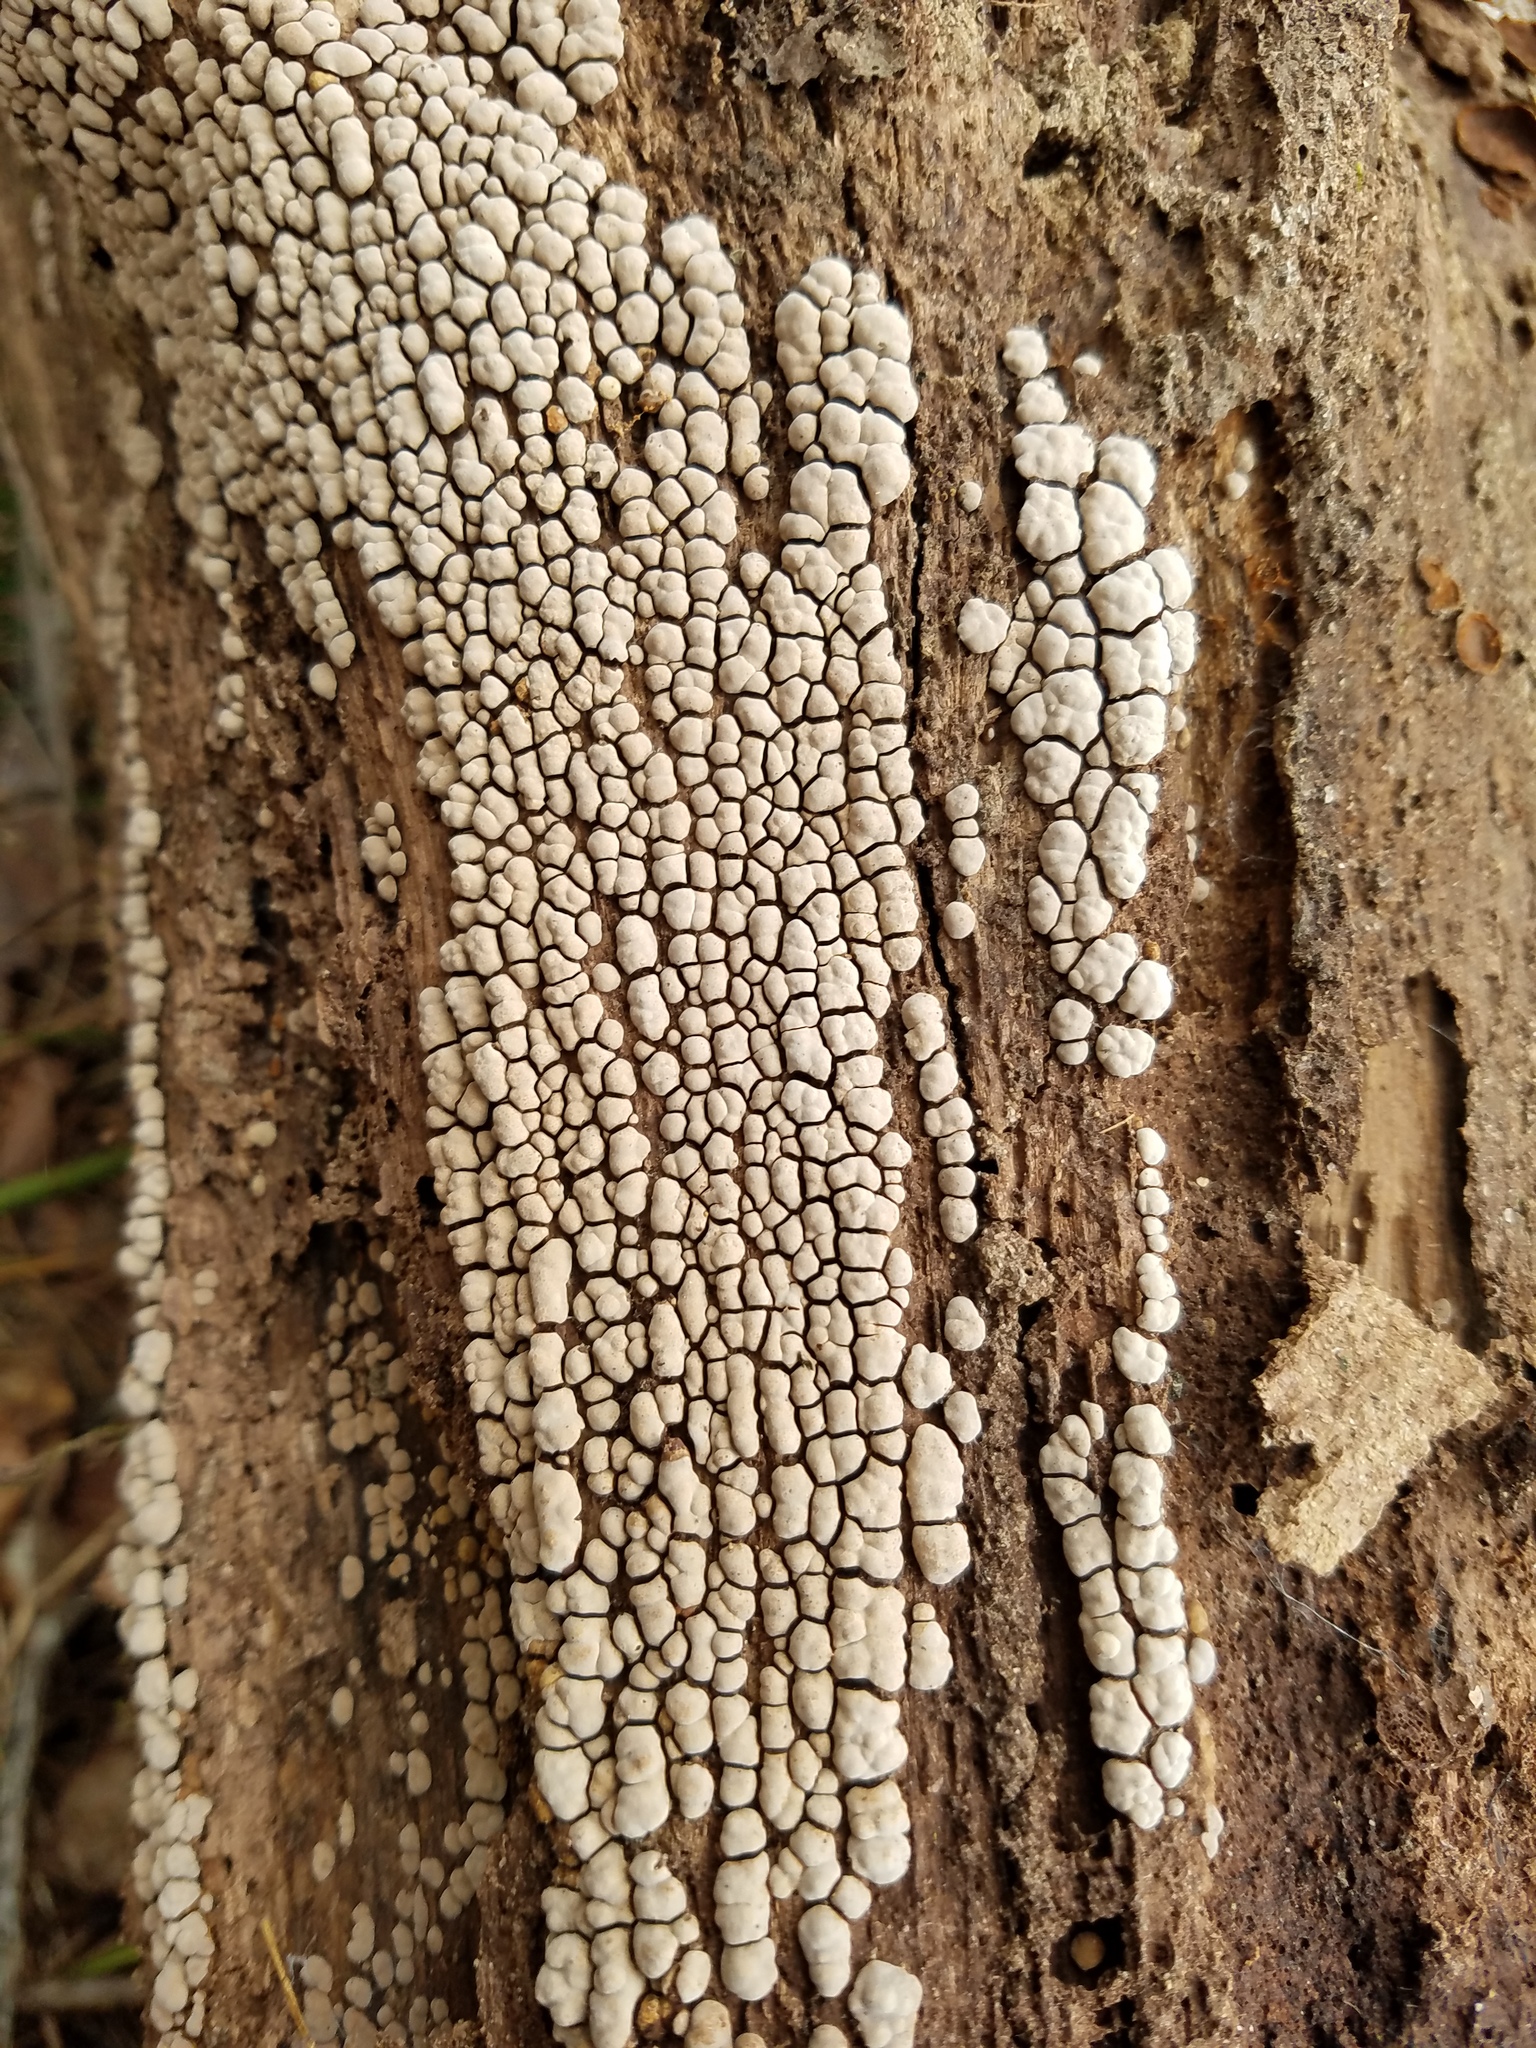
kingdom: Fungi
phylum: Basidiomycota
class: Agaricomycetes
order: Russulales
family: Stereaceae
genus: Xylobolus
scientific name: Xylobolus frustulatus
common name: Ceramic parchment
